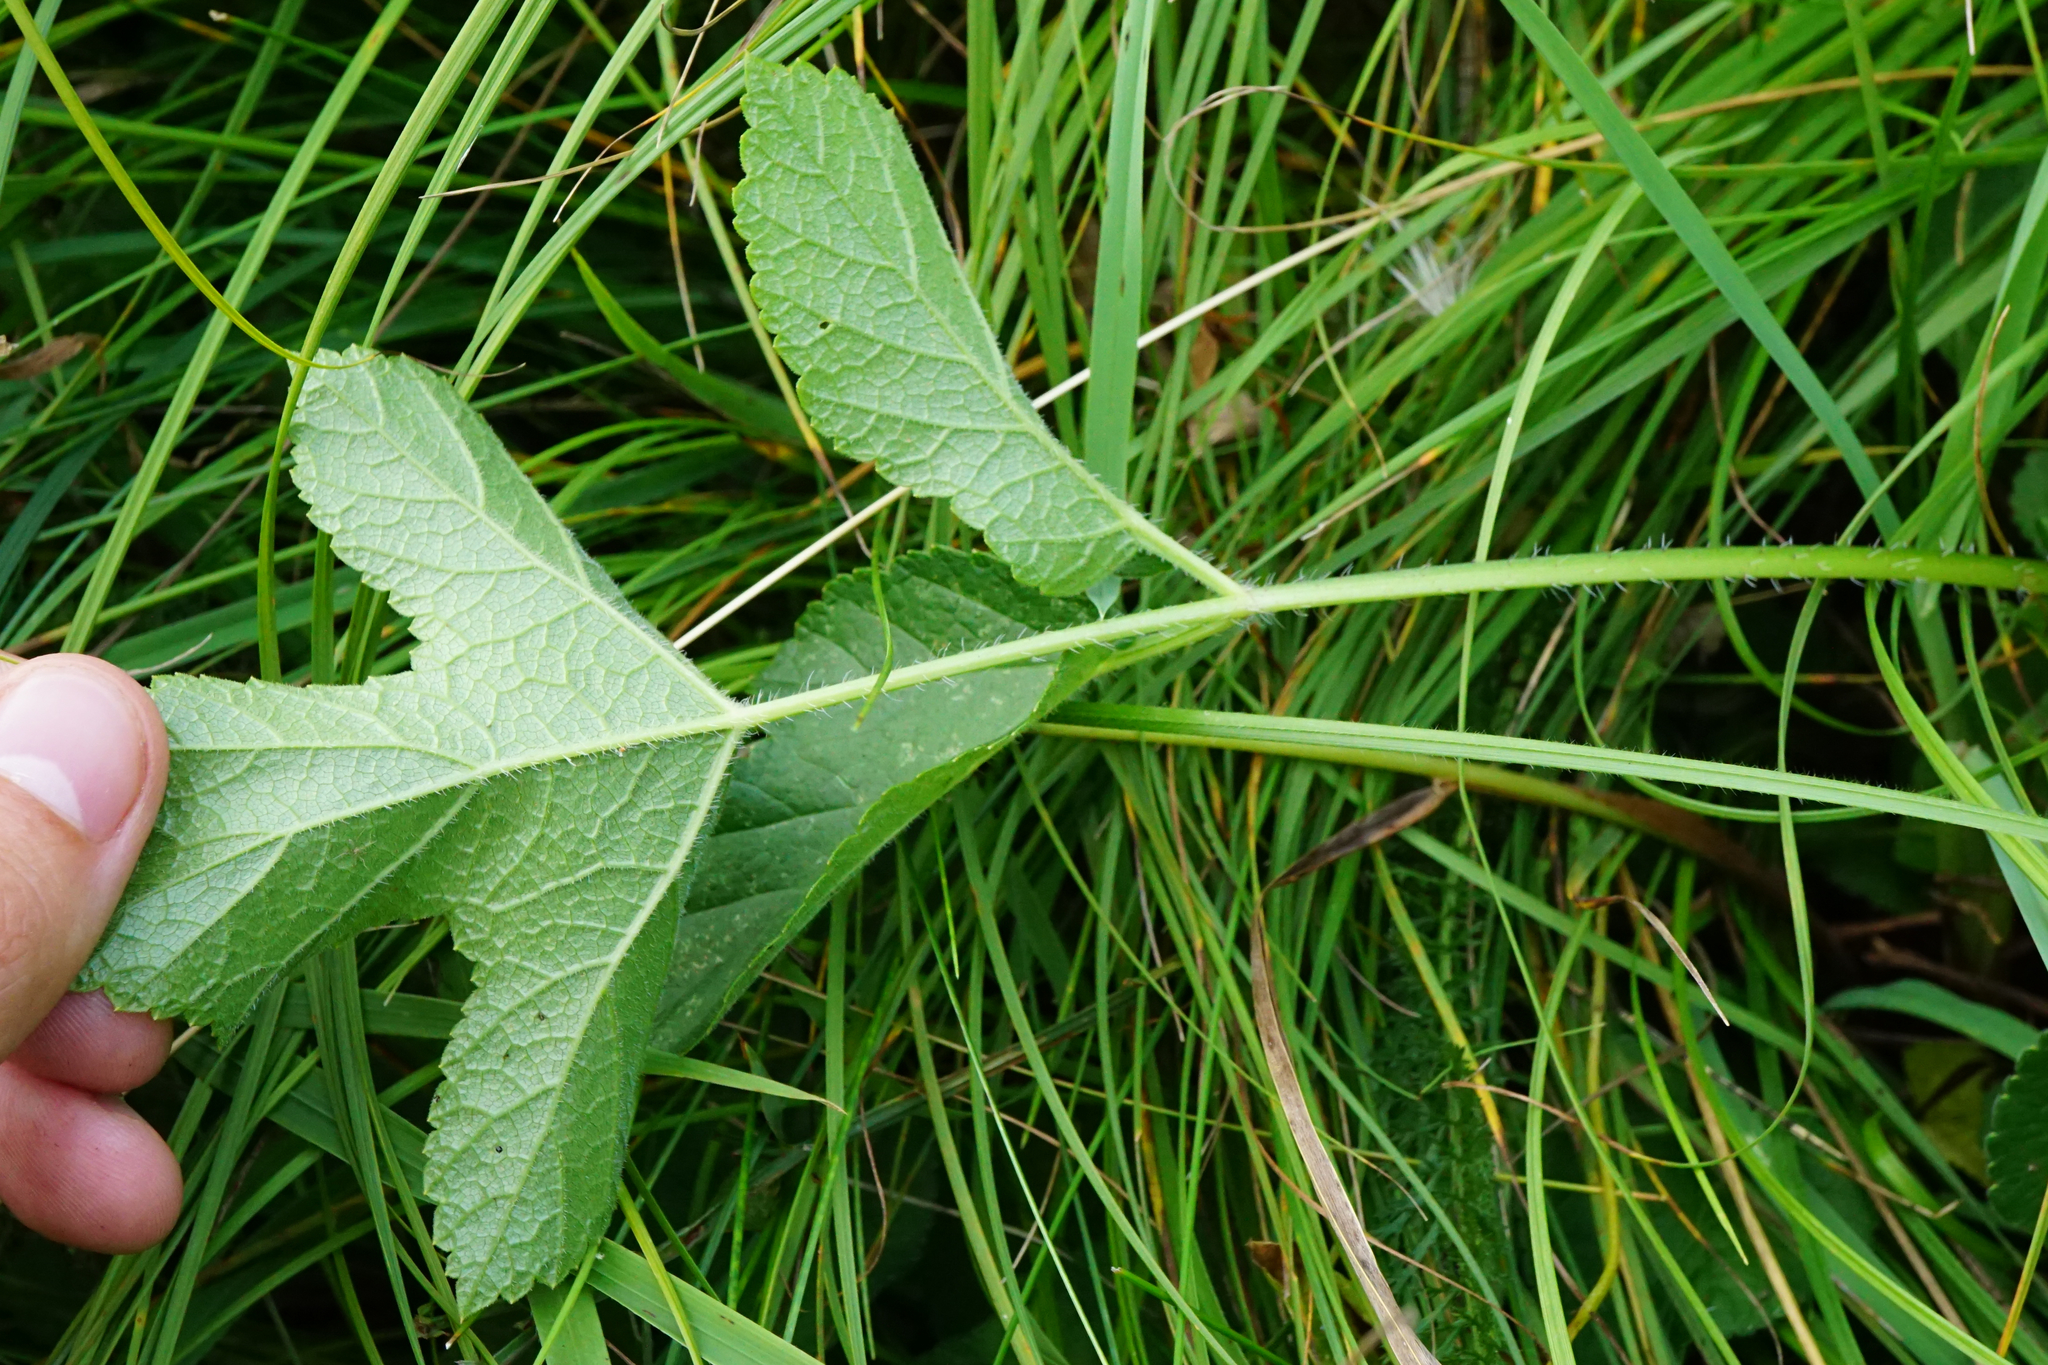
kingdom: Plantae
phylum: Tracheophyta
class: Magnoliopsida
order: Apiales
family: Apiaceae
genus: Heracleum
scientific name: Heracleum sphondylium
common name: Hogweed
